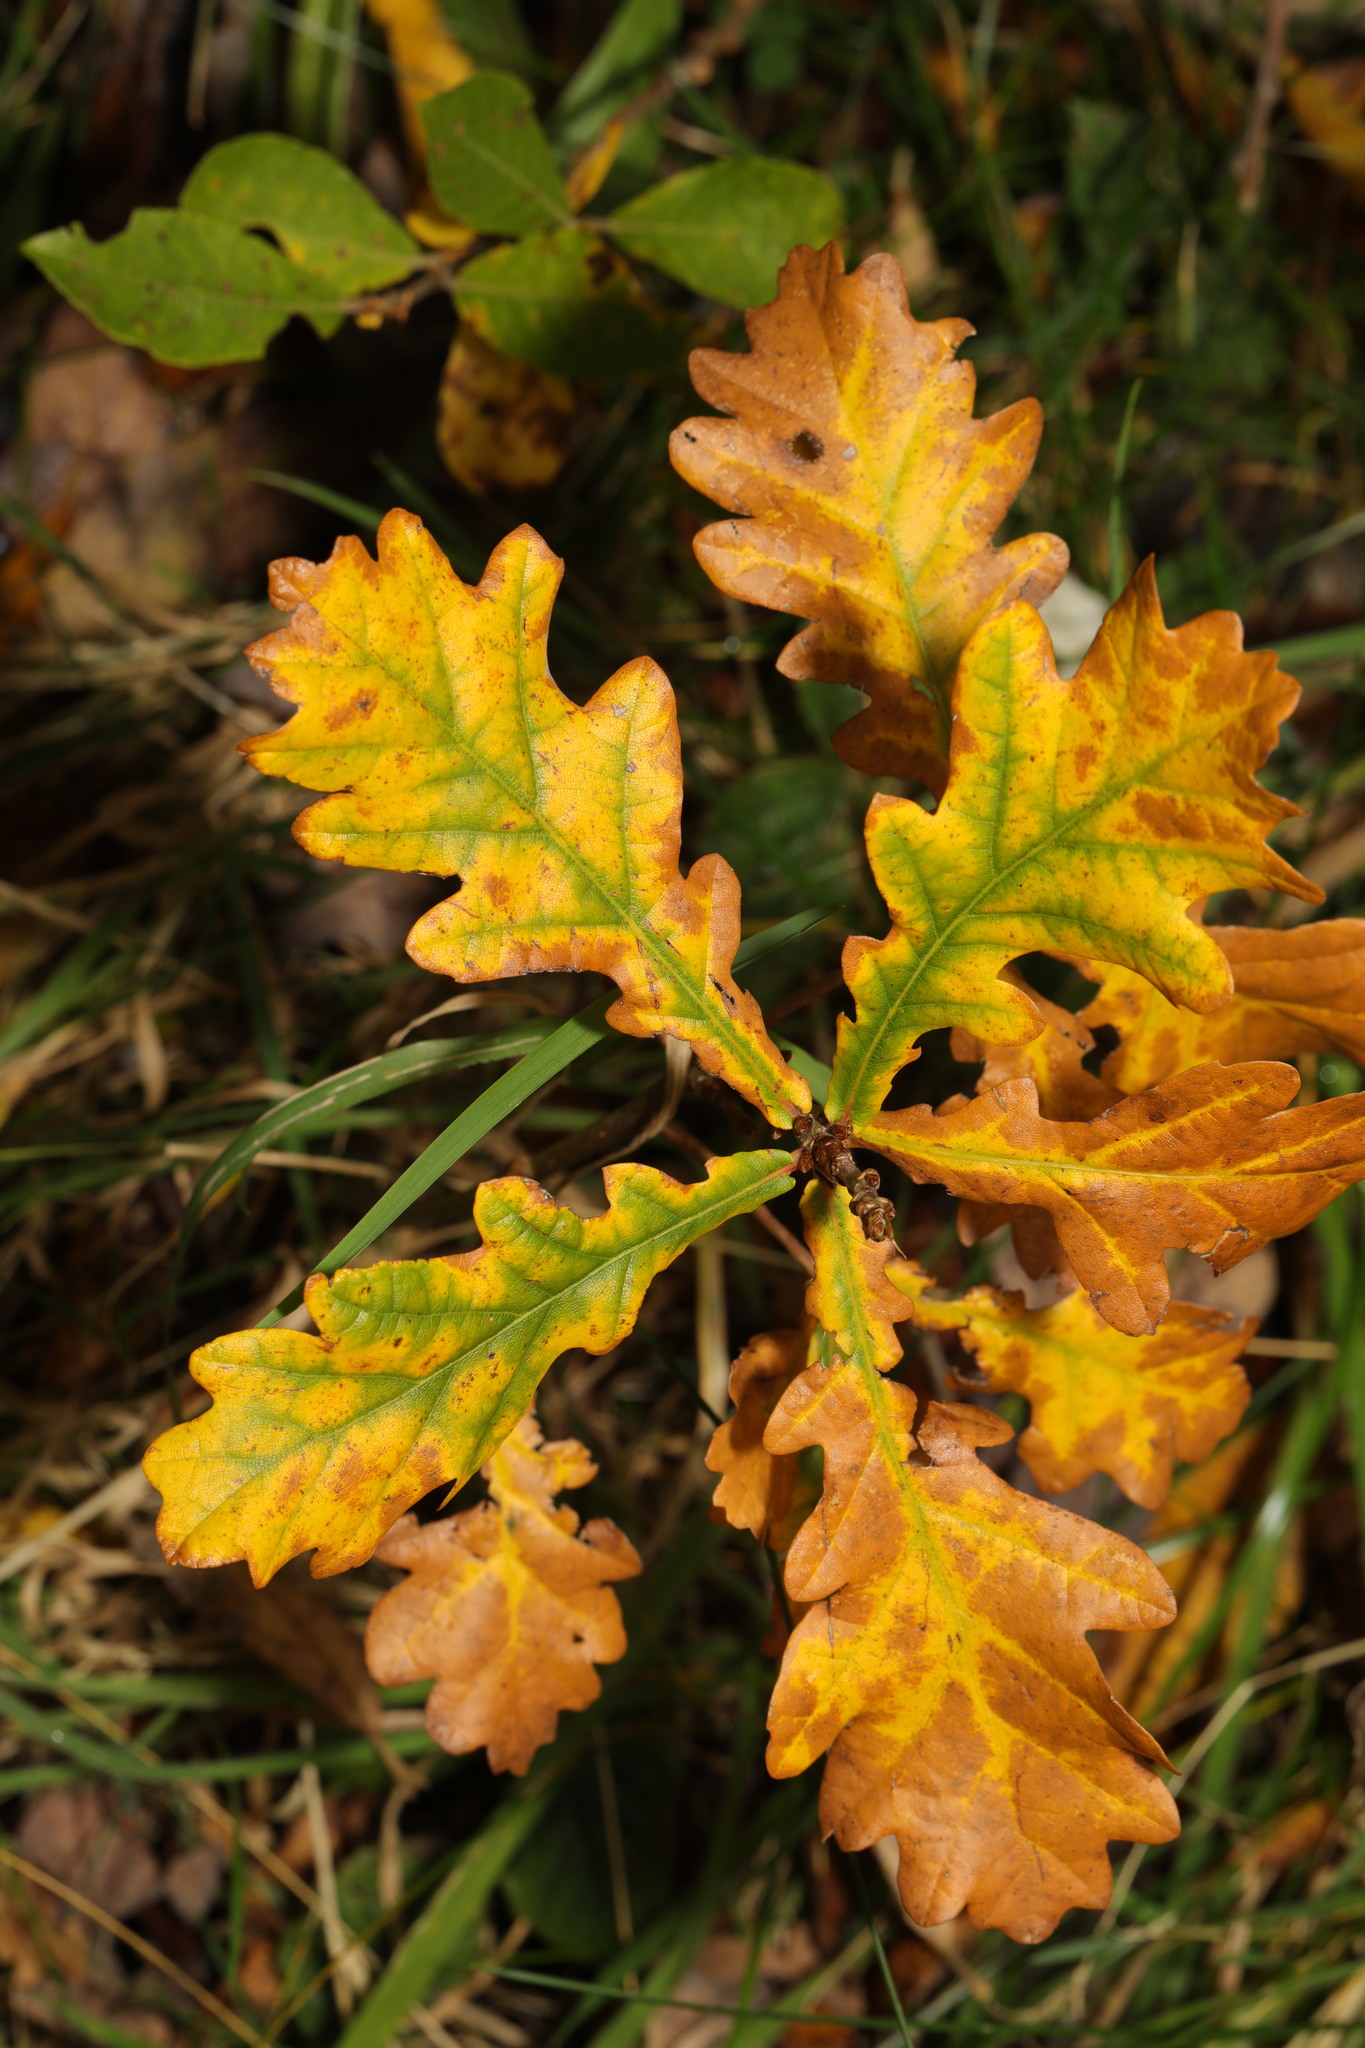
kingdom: Plantae
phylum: Tracheophyta
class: Magnoliopsida
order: Fagales
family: Fagaceae
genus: Quercus
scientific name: Quercus robur
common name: Pedunculate oak
